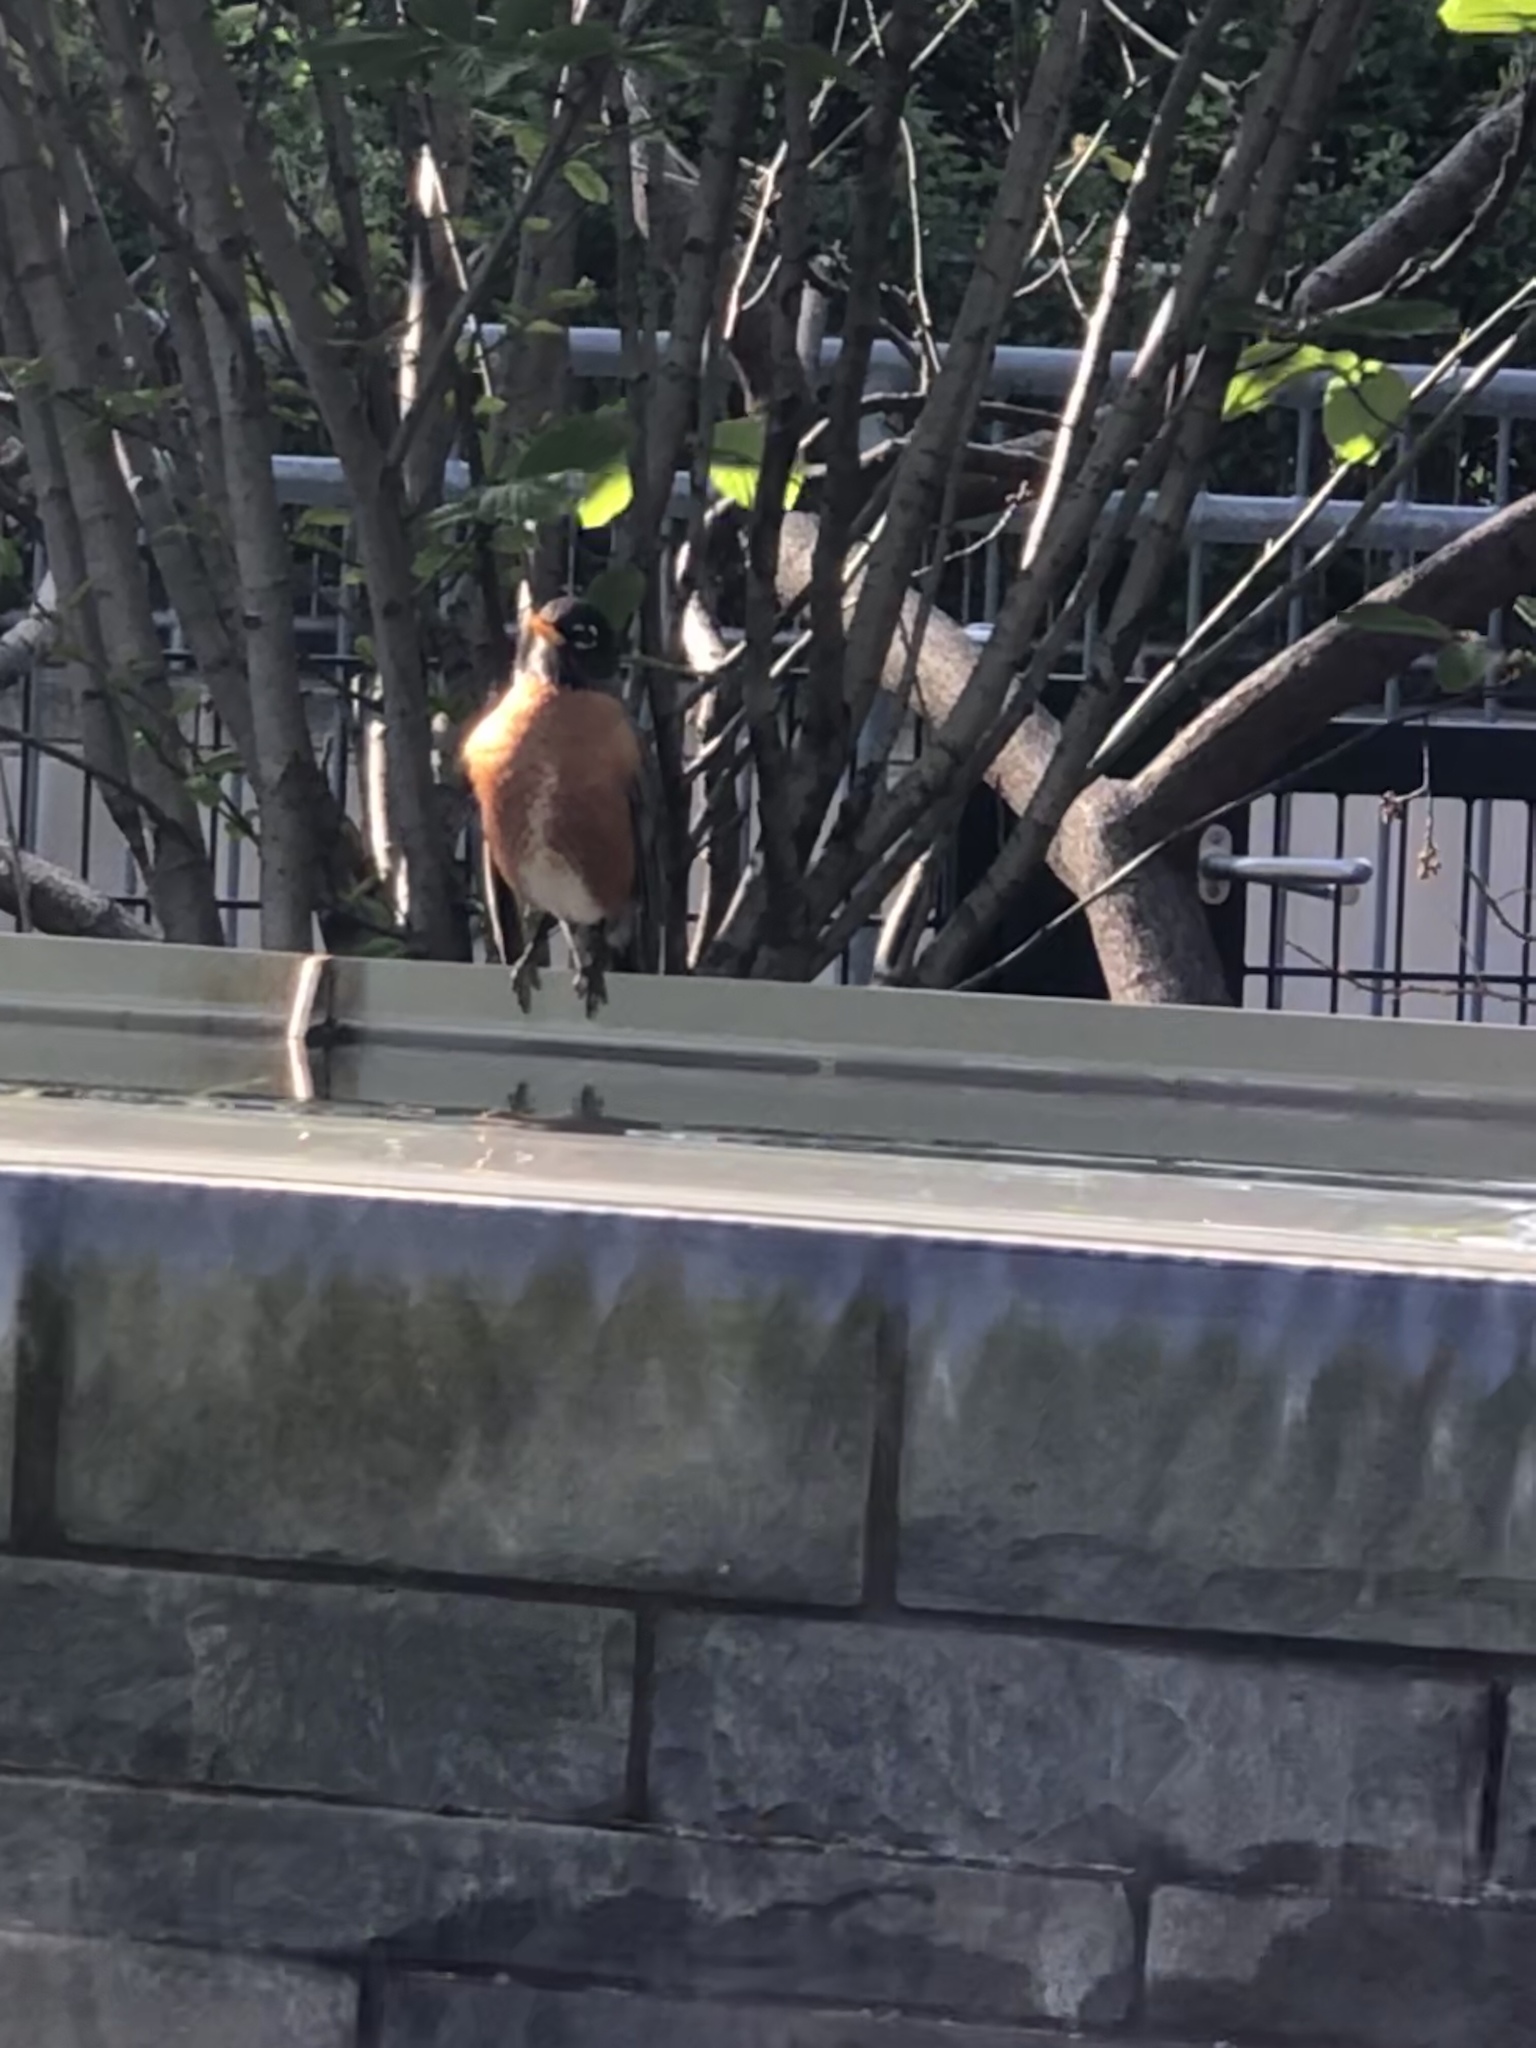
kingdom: Animalia
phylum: Chordata
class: Aves
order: Passeriformes
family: Turdidae
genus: Turdus
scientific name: Turdus migratorius
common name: American robin
